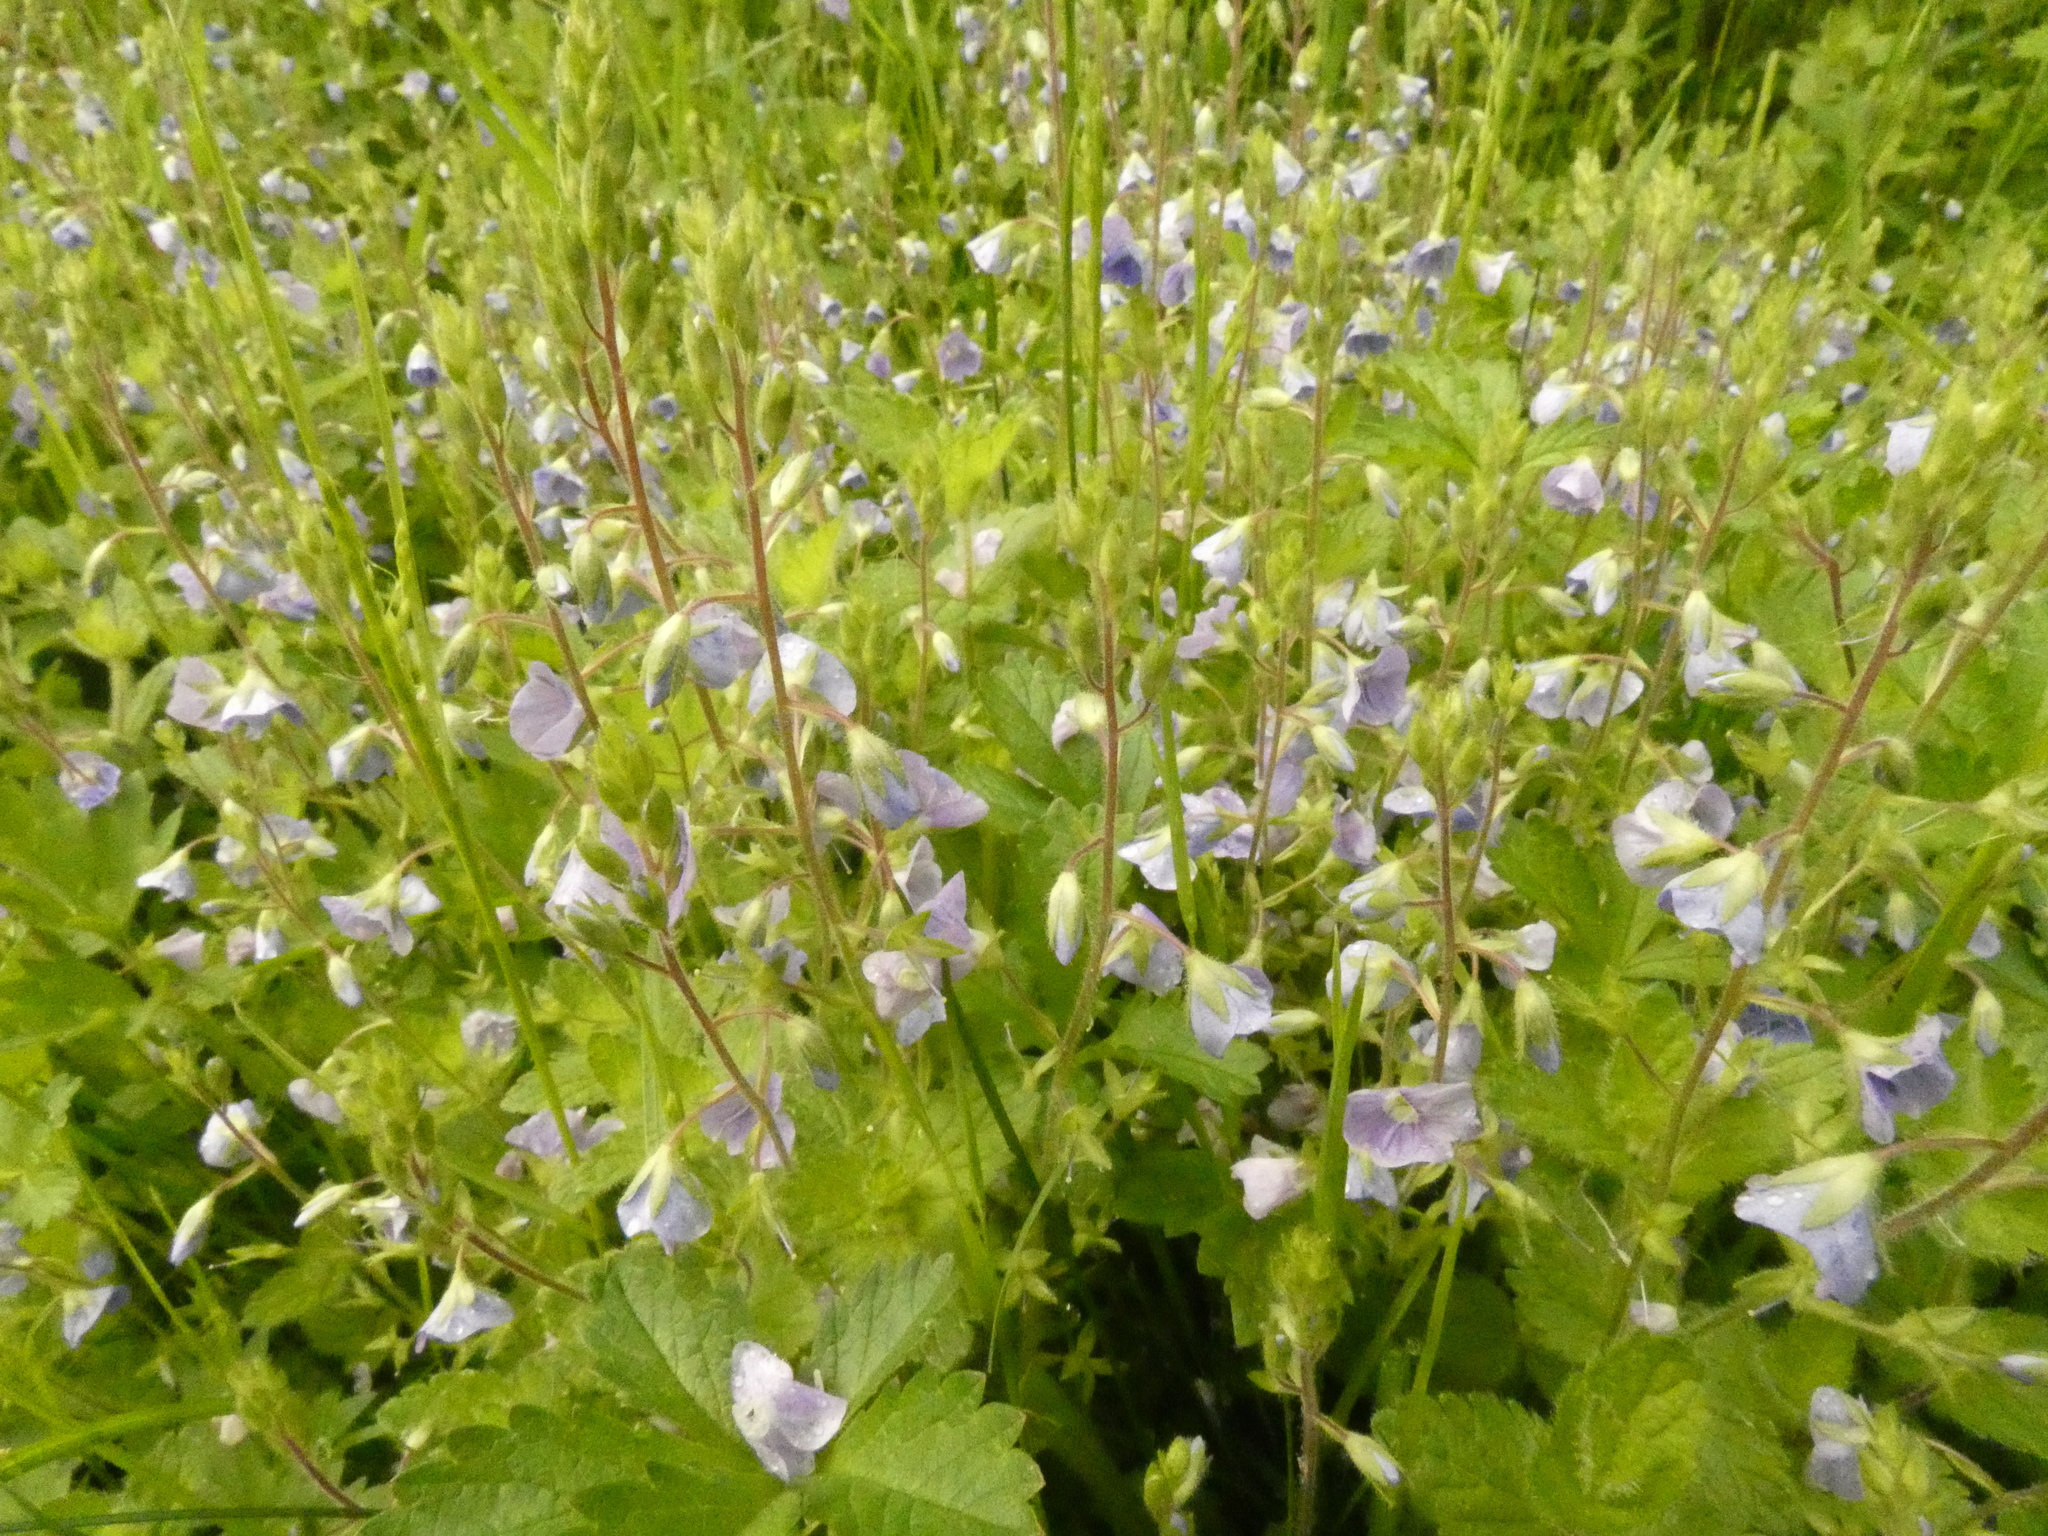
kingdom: Plantae
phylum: Tracheophyta
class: Magnoliopsida
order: Lamiales
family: Plantaginaceae
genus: Veronica
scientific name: Veronica chamaedrys
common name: Germander speedwell
